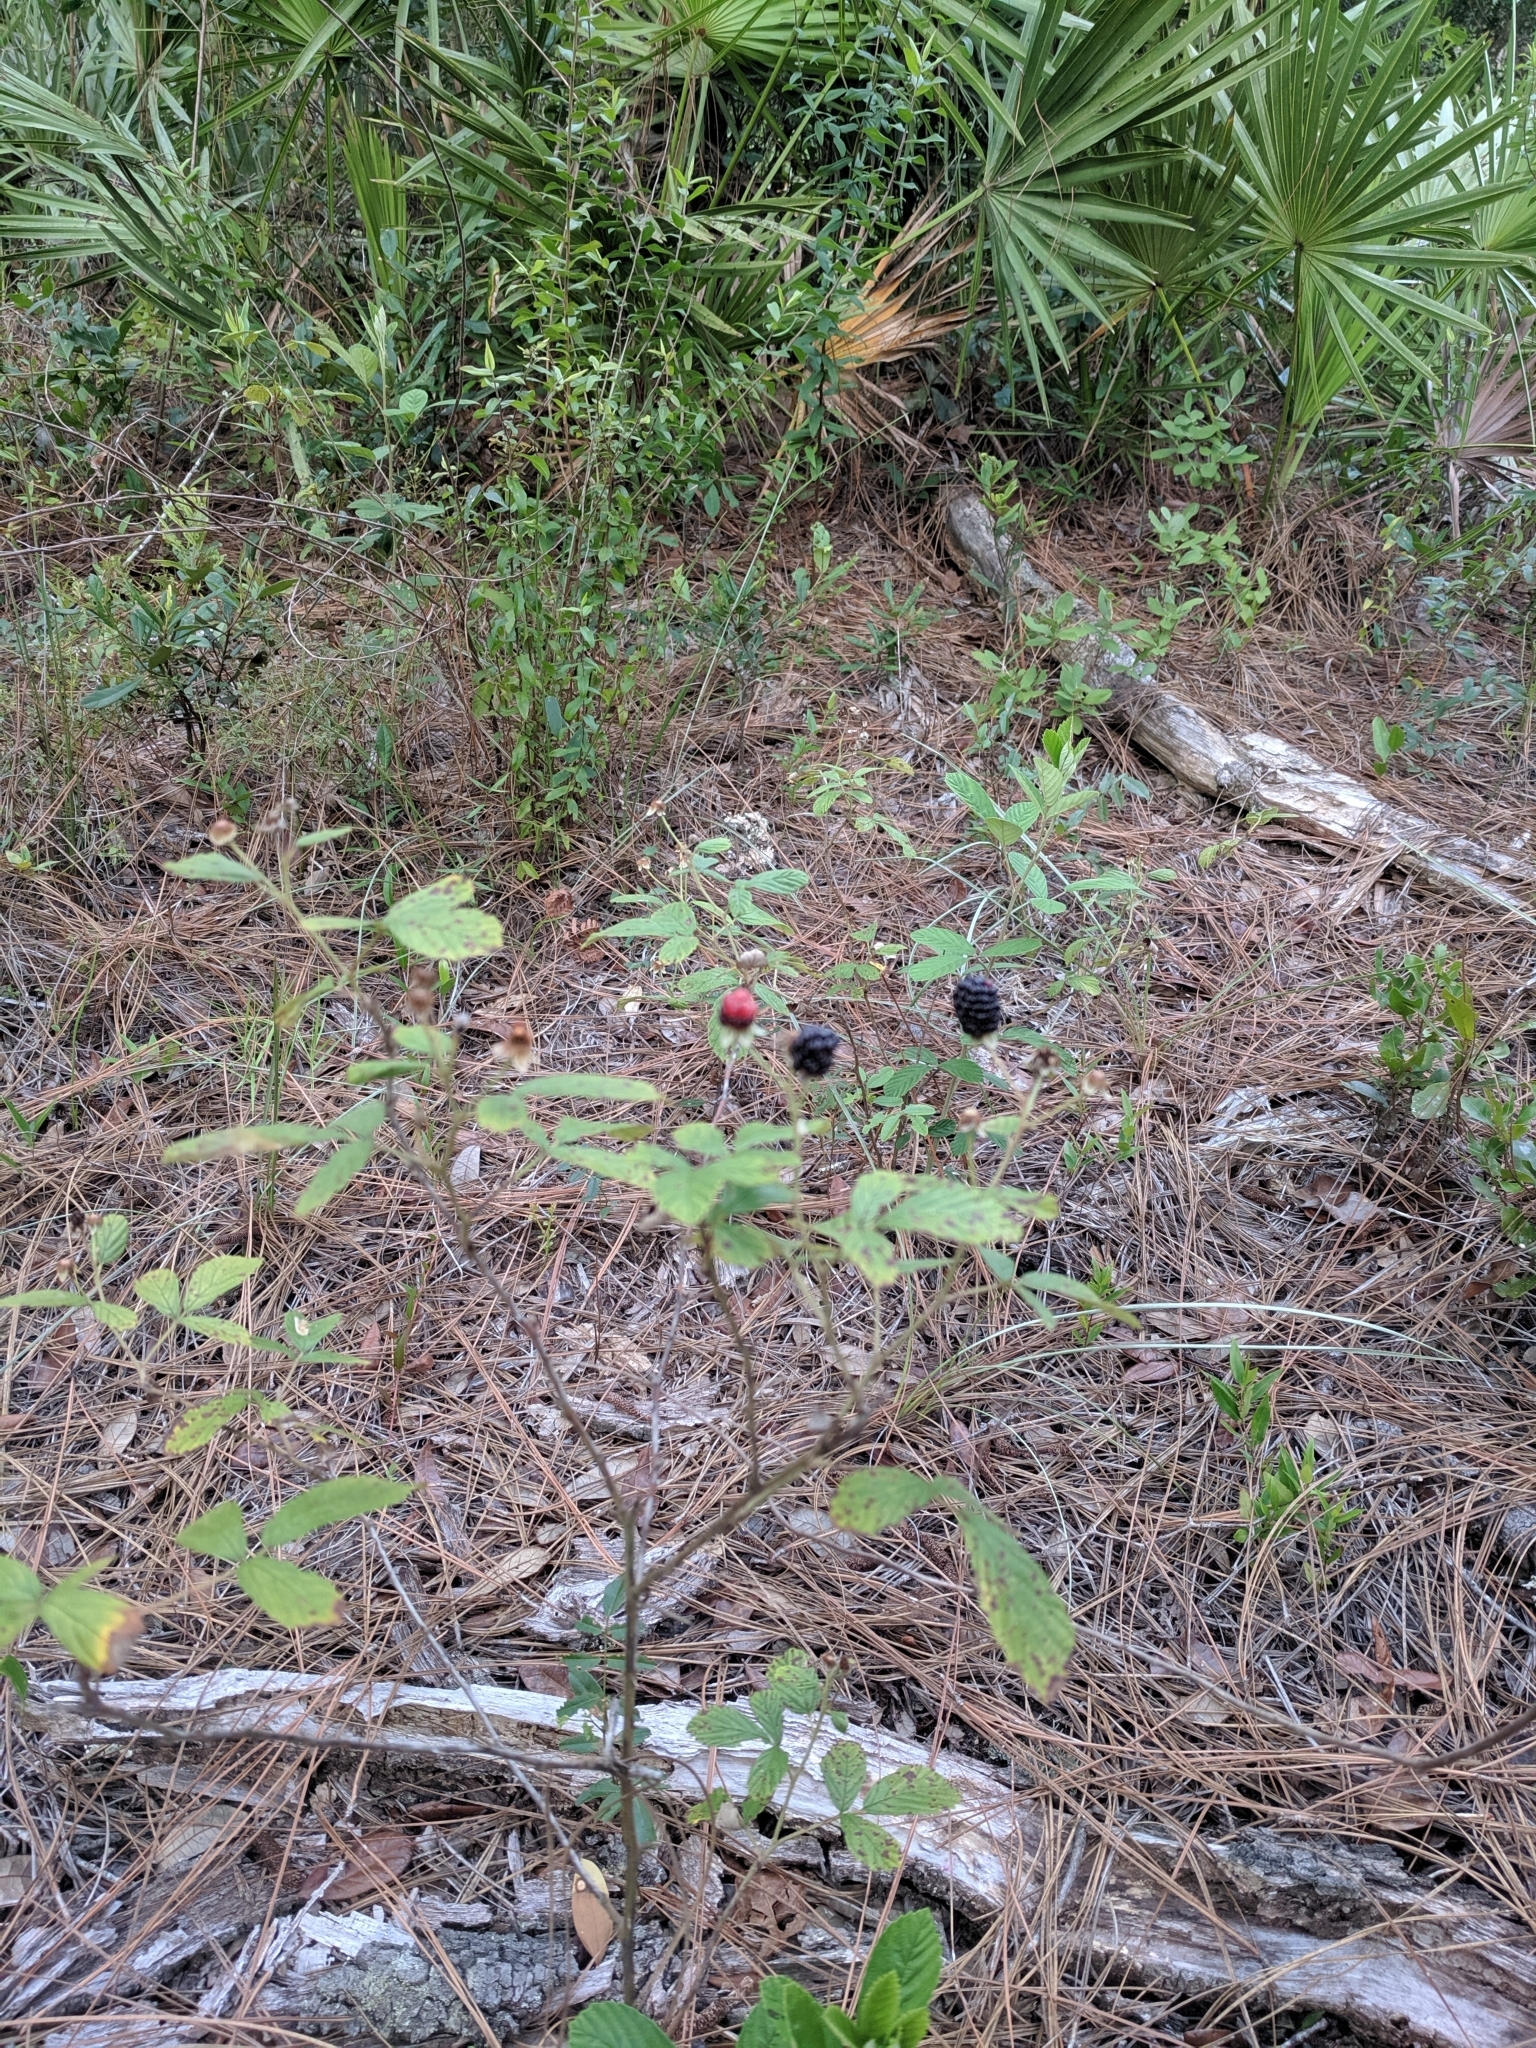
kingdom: Plantae
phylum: Tracheophyta
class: Magnoliopsida
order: Rosales
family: Rosaceae
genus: Rubus
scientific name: Rubus cuneifolius
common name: American bramble
